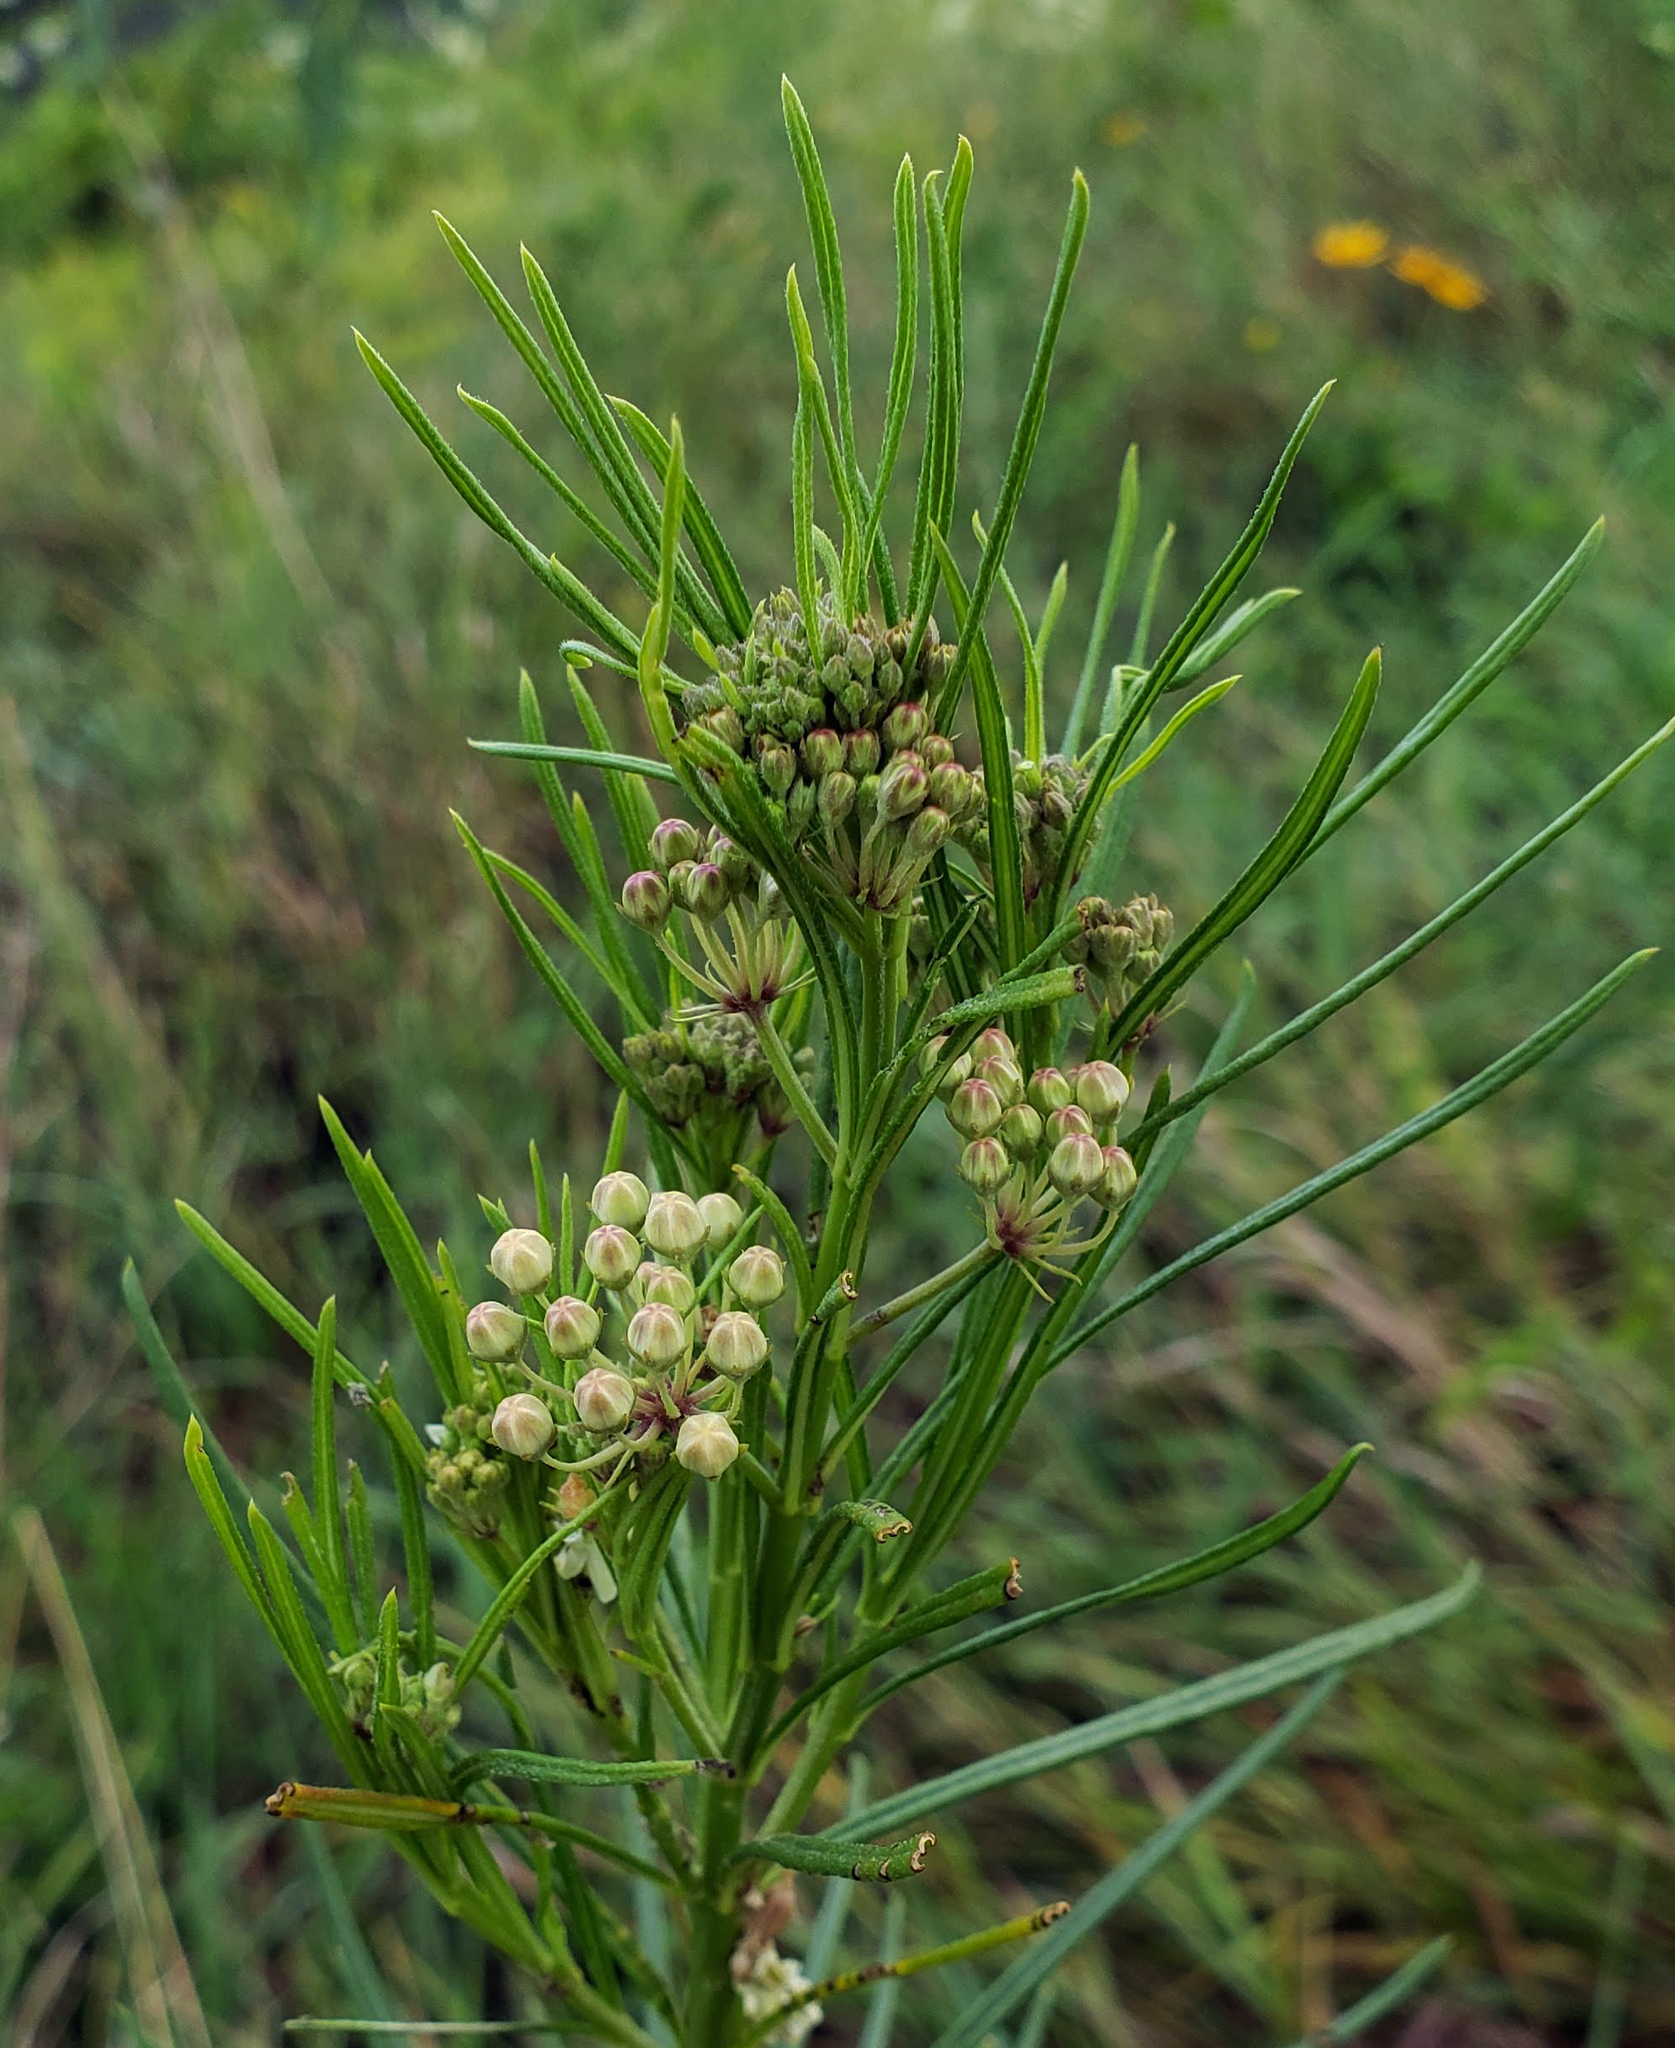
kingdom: Plantae
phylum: Tracheophyta
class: Magnoliopsida
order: Gentianales
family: Apocynaceae
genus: Asclepias
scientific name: Asclepias verticillata
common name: Eastern whorled milkweed
